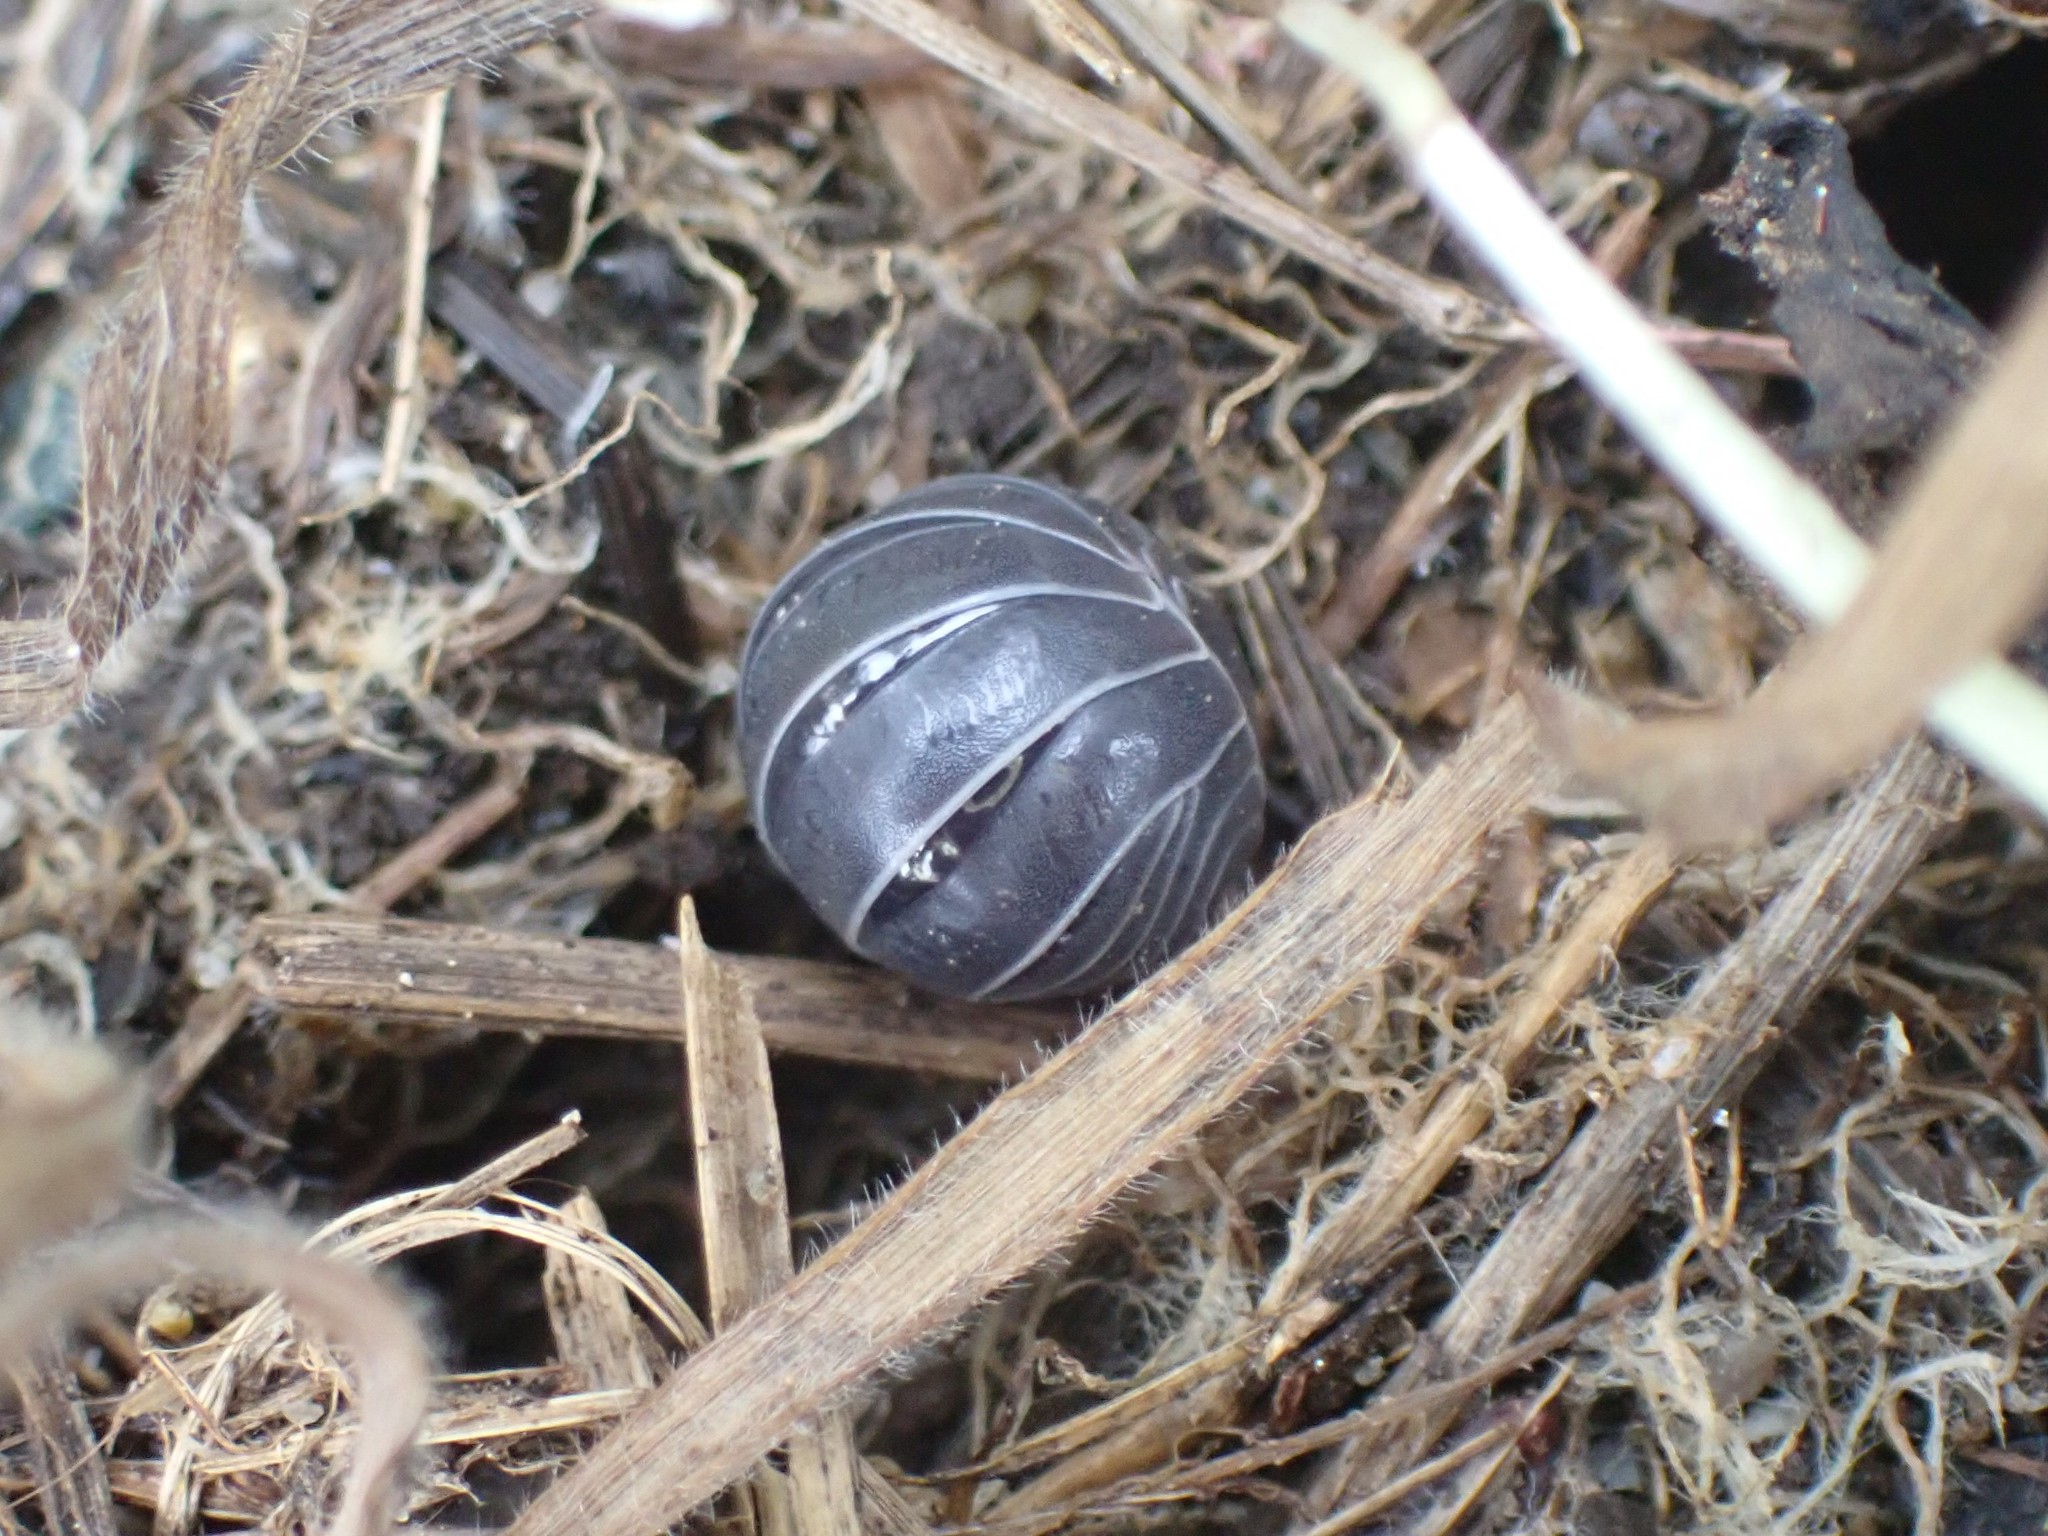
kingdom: Animalia
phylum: Arthropoda
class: Malacostraca
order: Isopoda
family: Armadillidiidae
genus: Armadillidium
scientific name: Armadillidium vulgare
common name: Common pill woodlouse
